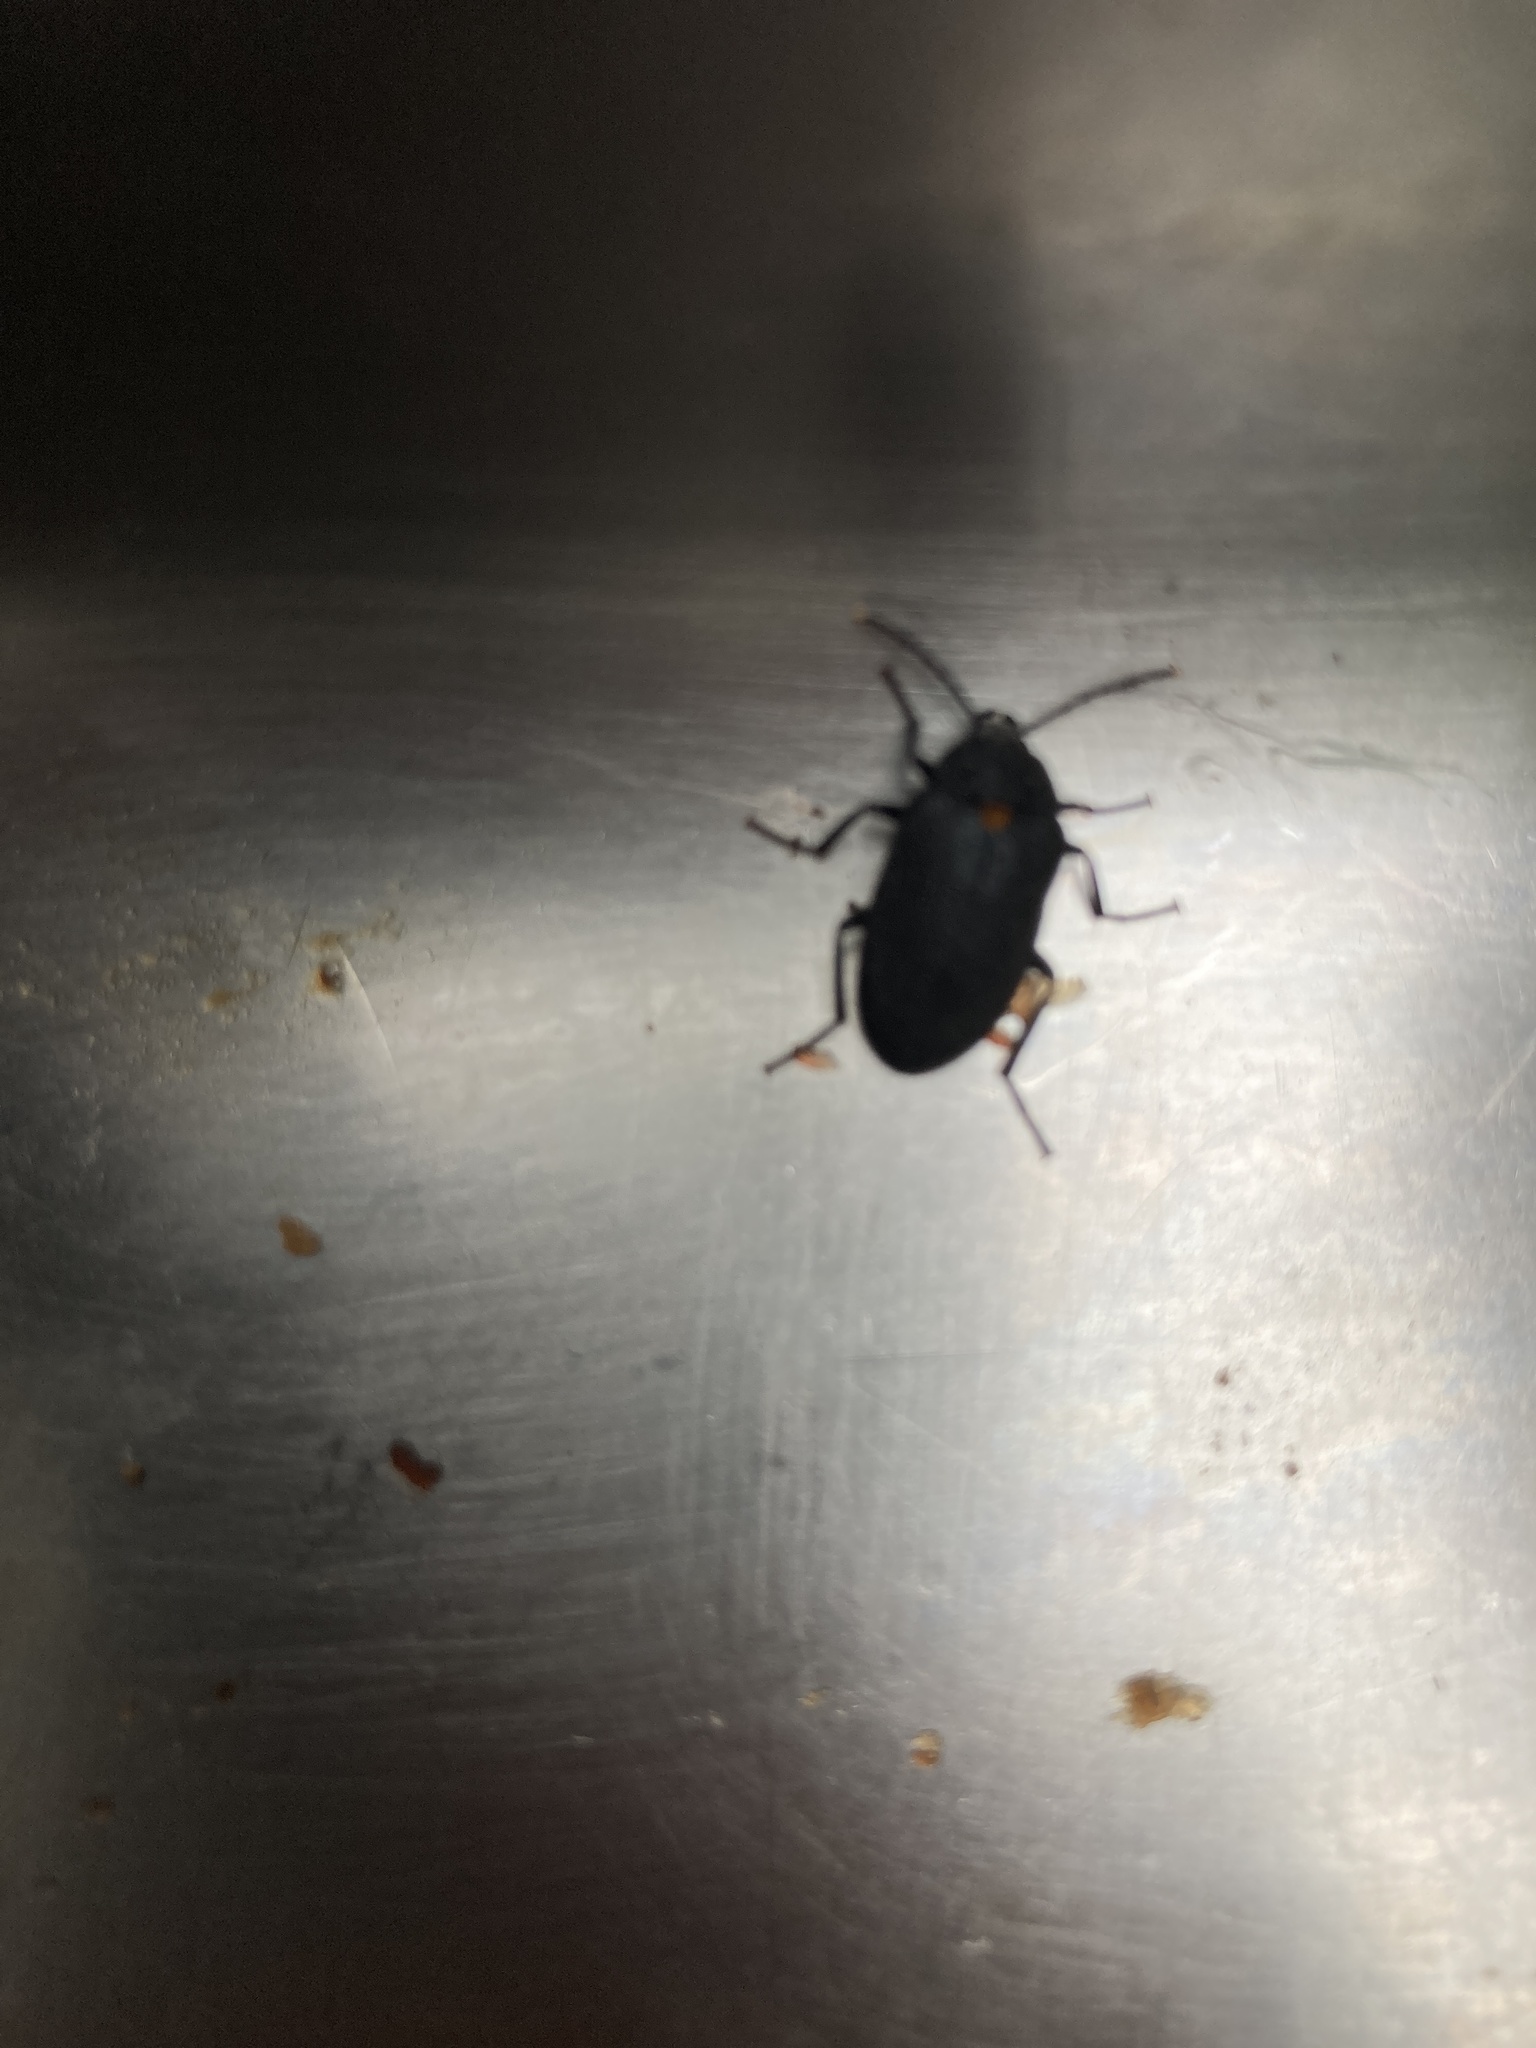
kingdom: Animalia
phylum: Arthropoda
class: Insecta
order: Coleoptera
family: Tetratomidae
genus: Penthe
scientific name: Penthe obliquata
